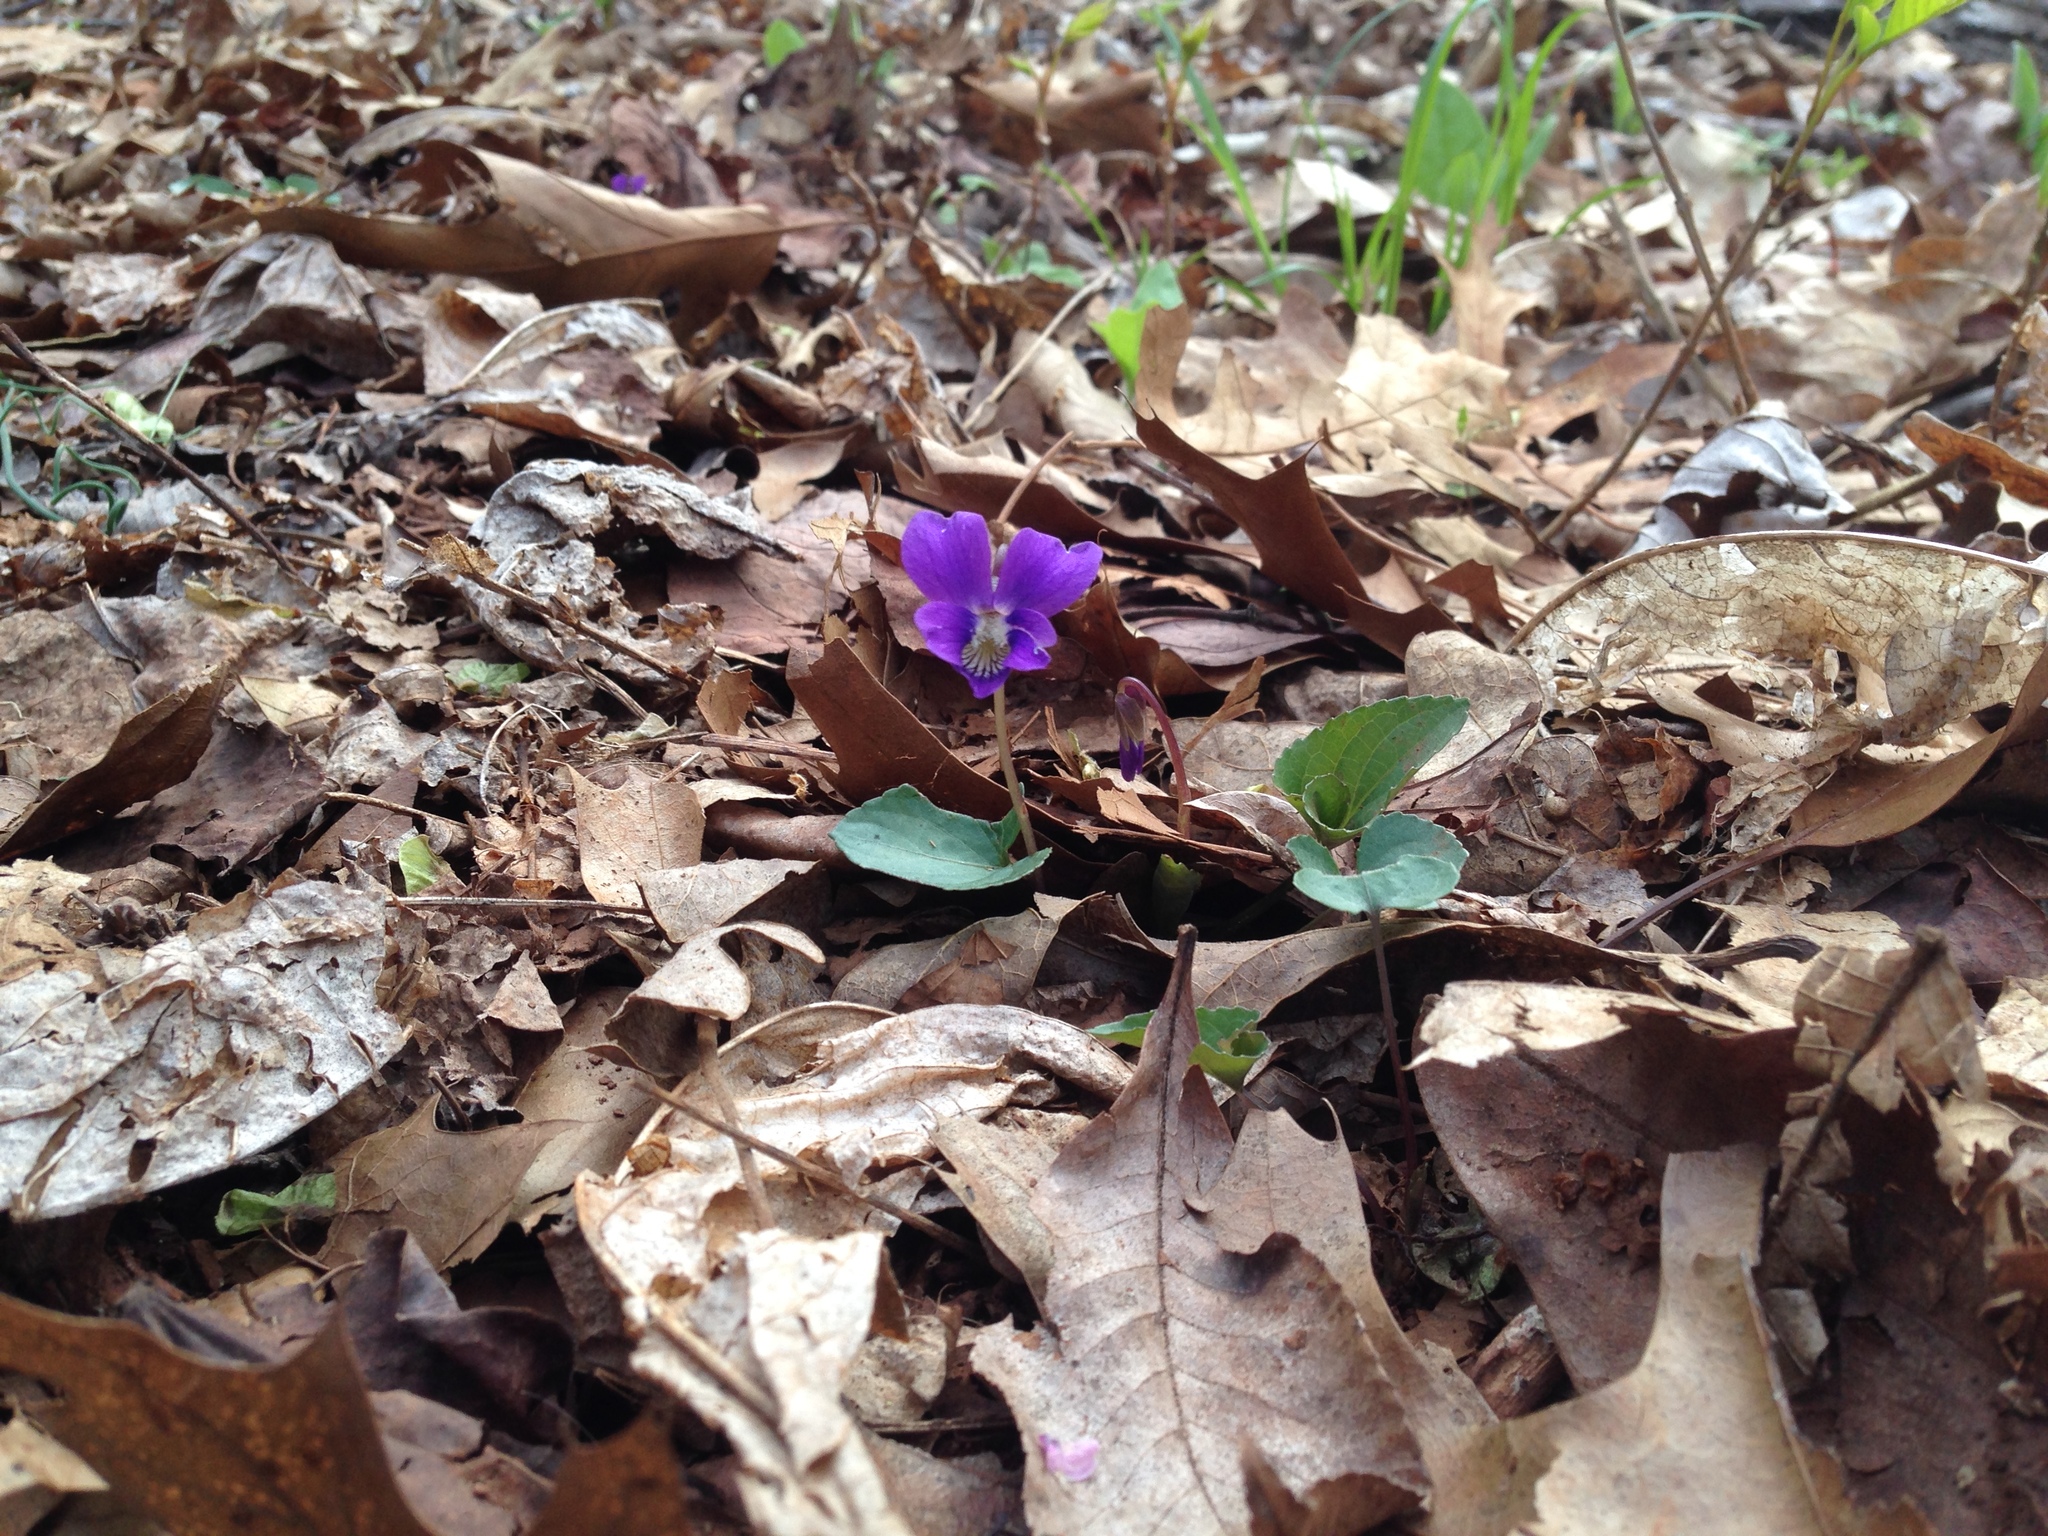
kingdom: Plantae
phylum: Tracheophyta
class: Magnoliopsida
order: Malpighiales
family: Violaceae
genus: Viola
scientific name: Viola sororia
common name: Dooryard violet
